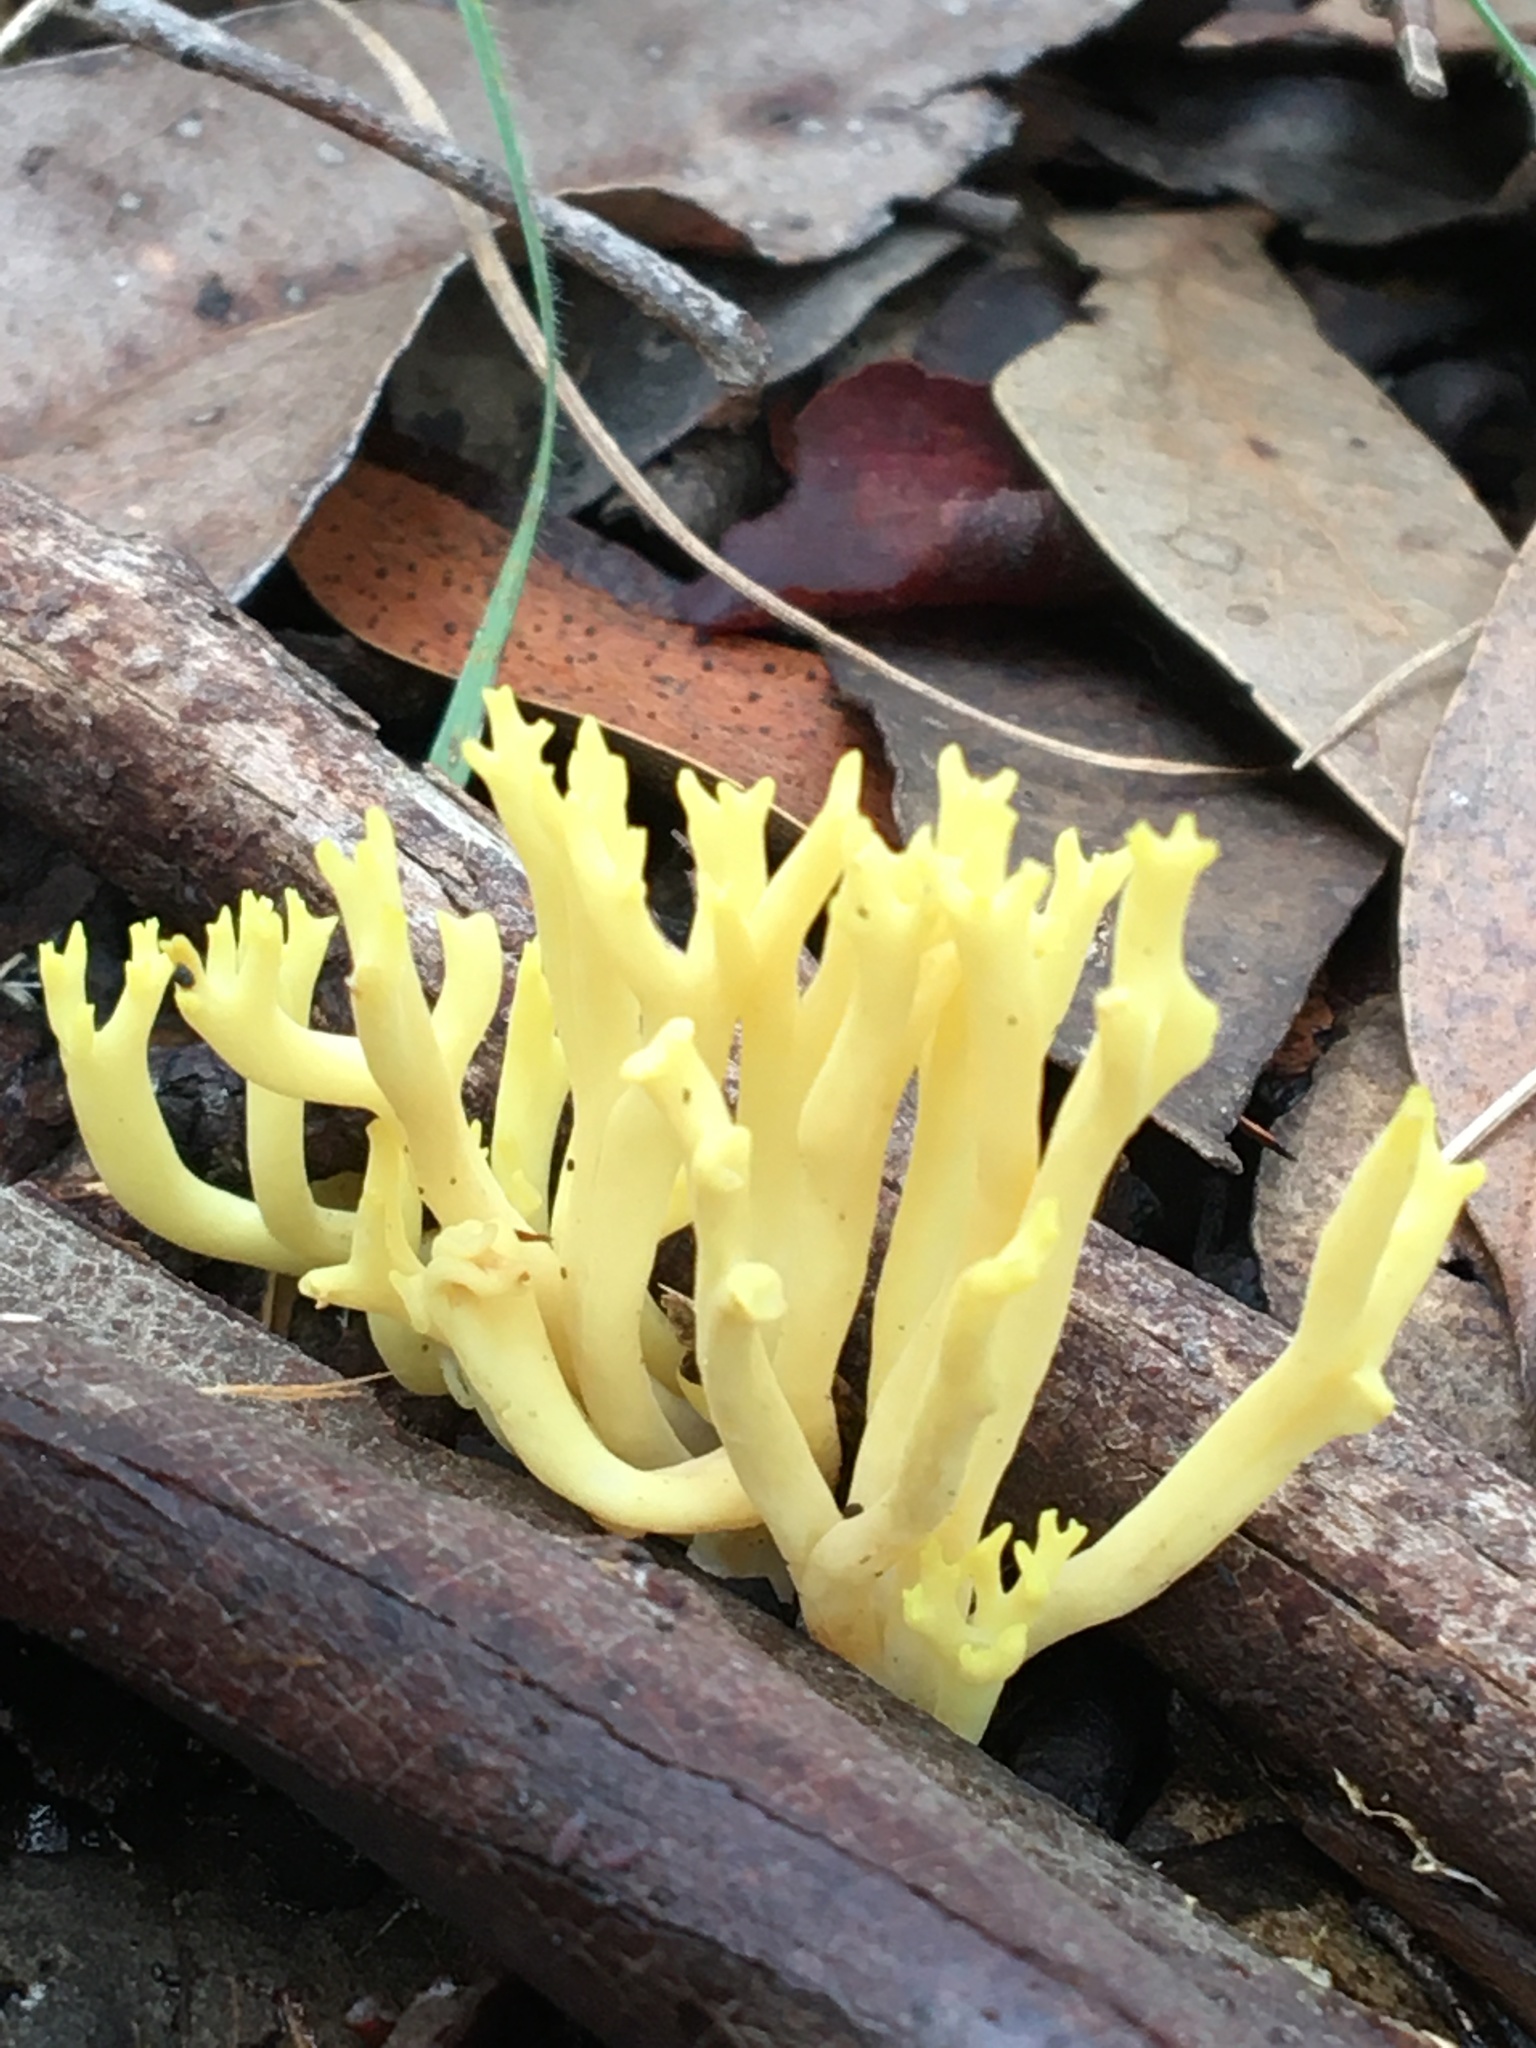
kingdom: Fungi
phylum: Basidiomycota
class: Agaricomycetes
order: Gomphales
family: Gomphaceae
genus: Ramaria
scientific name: Ramaria lorithamnus
